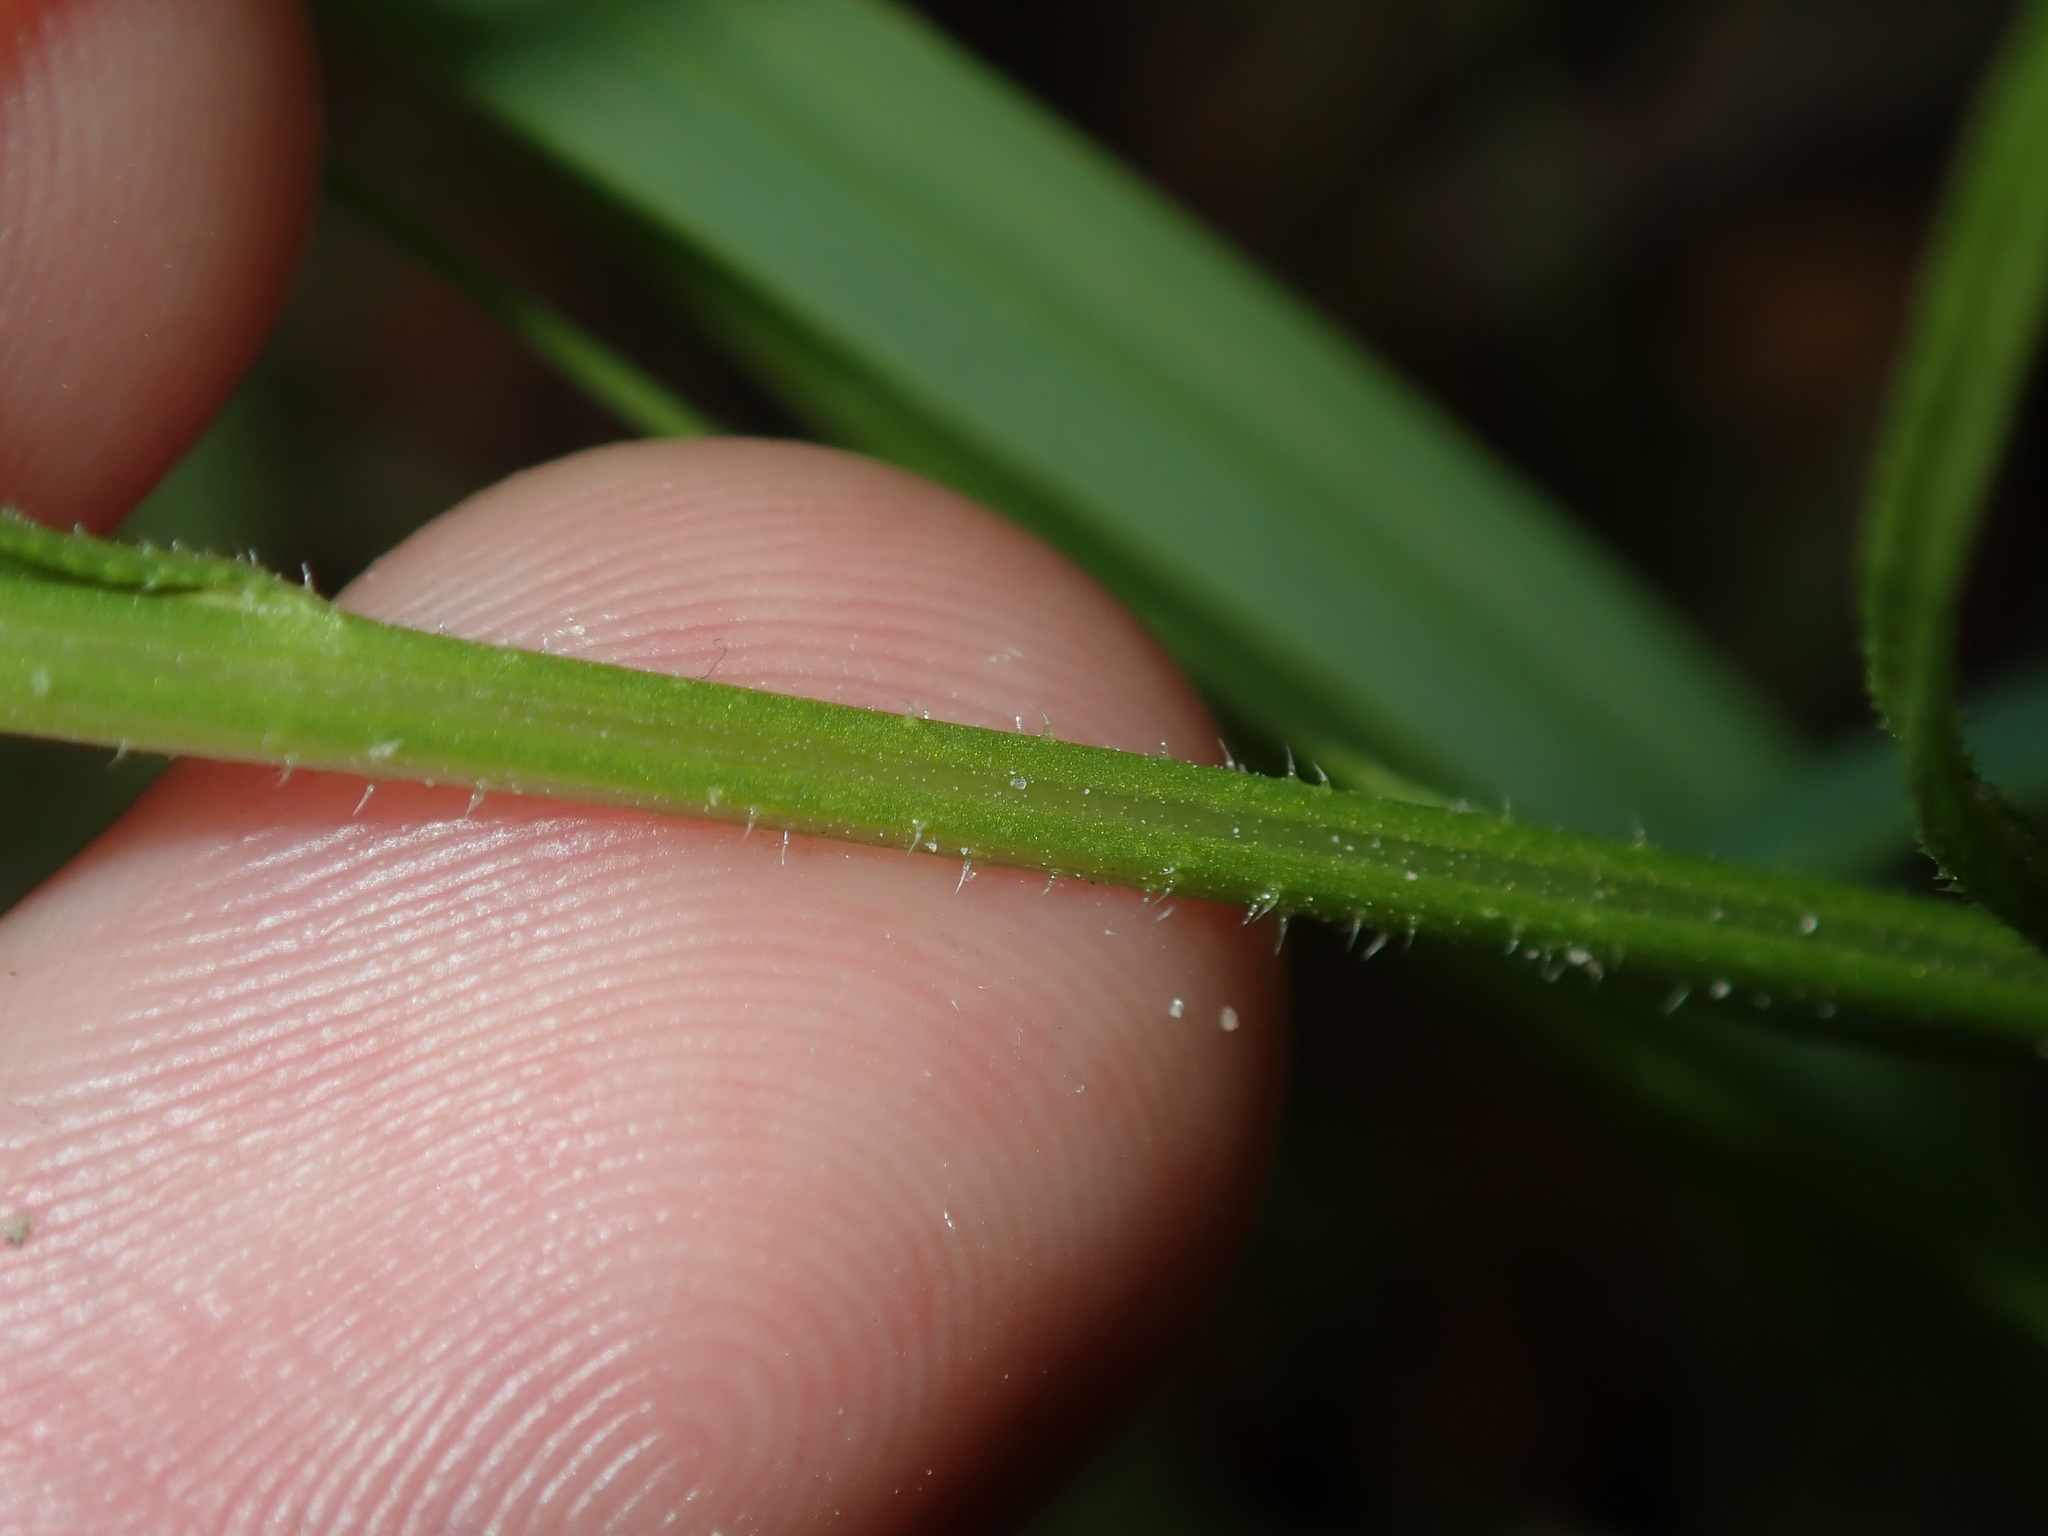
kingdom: Plantae
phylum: Tracheophyta
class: Magnoliopsida
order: Lamiales
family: Orobanchaceae
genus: Striga
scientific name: Striga curviflora
